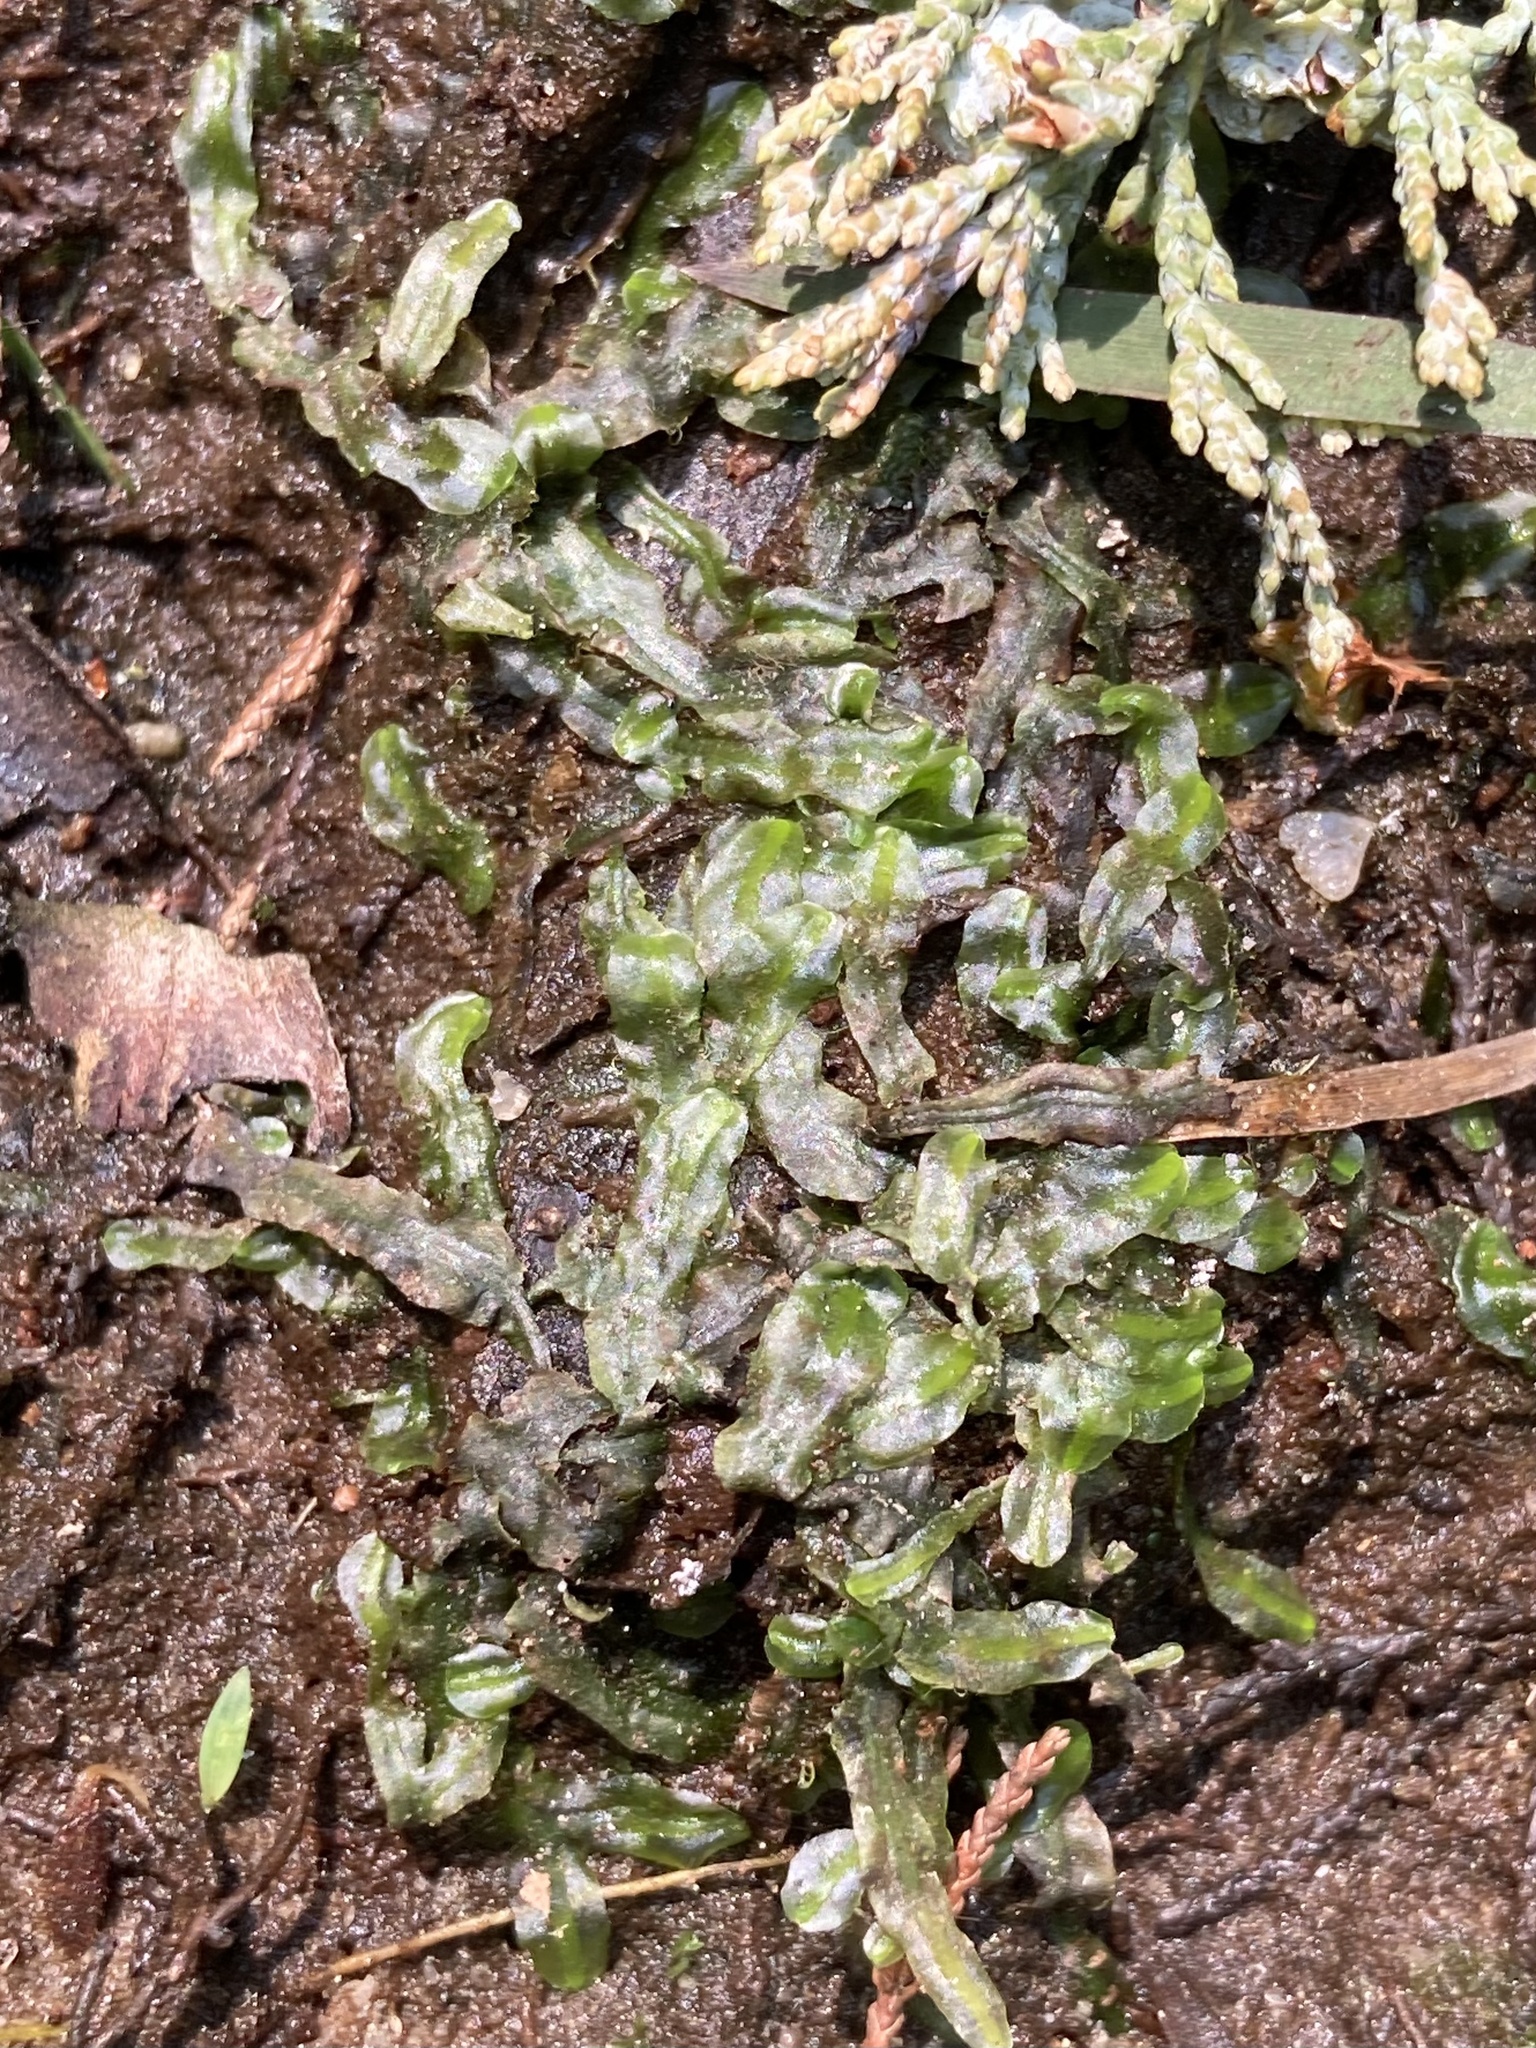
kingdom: Plantae
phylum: Marchantiophyta
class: Jungermanniopsida
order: Pallaviciniales
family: Pallaviciniaceae
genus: Pallavicinia
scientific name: Pallavicinia lyellii
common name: Veilwort
